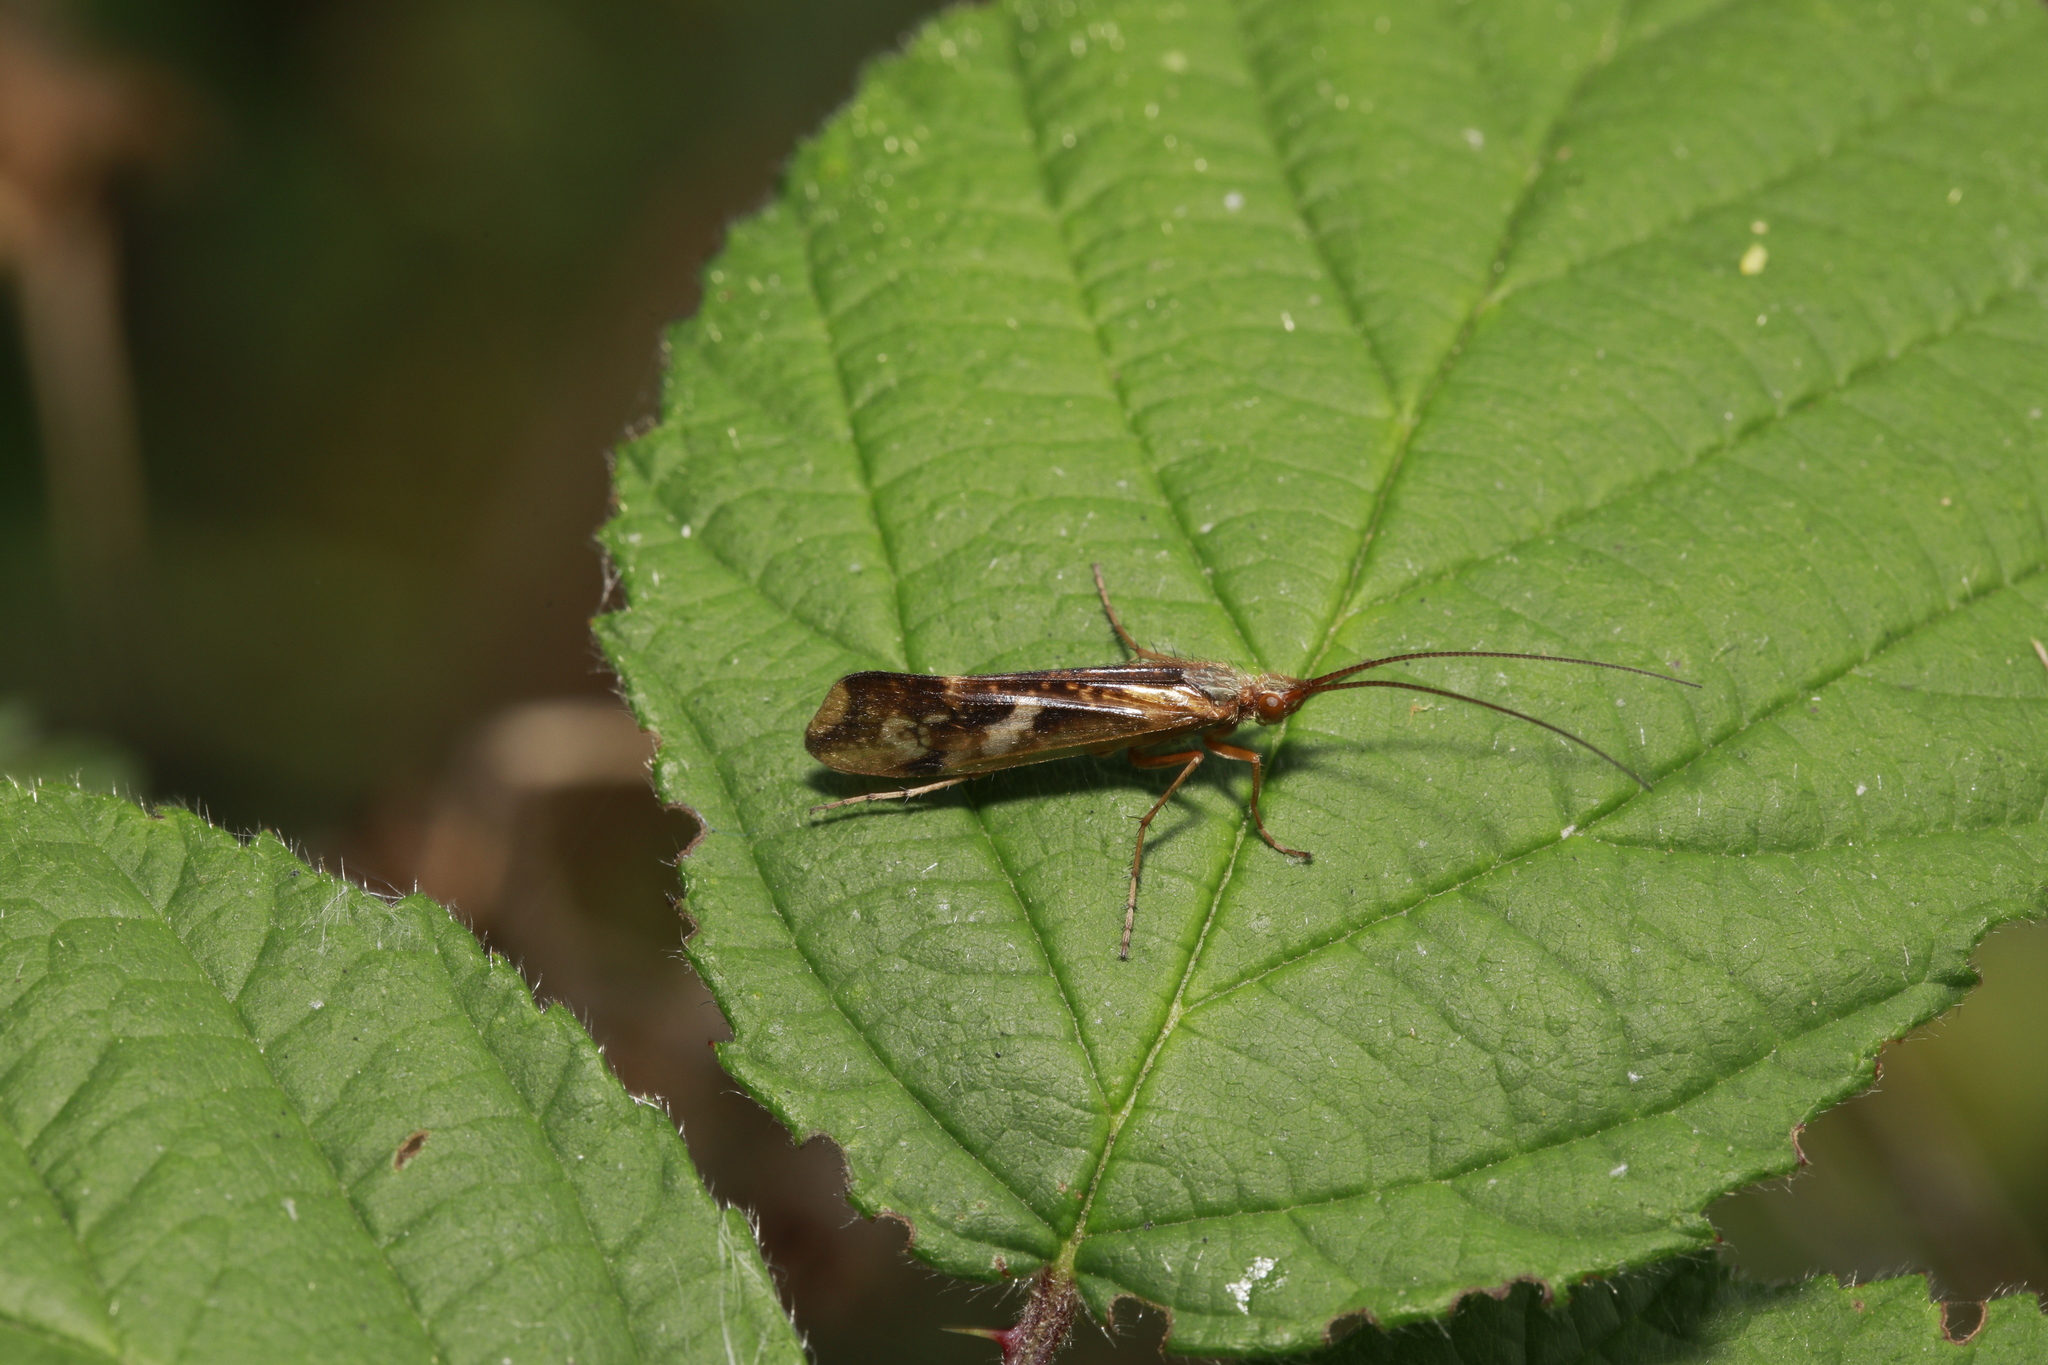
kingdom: Animalia
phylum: Arthropoda
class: Insecta
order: Trichoptera
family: Limnephilidae
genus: Limnephilus
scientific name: Limnephilus lunatus
